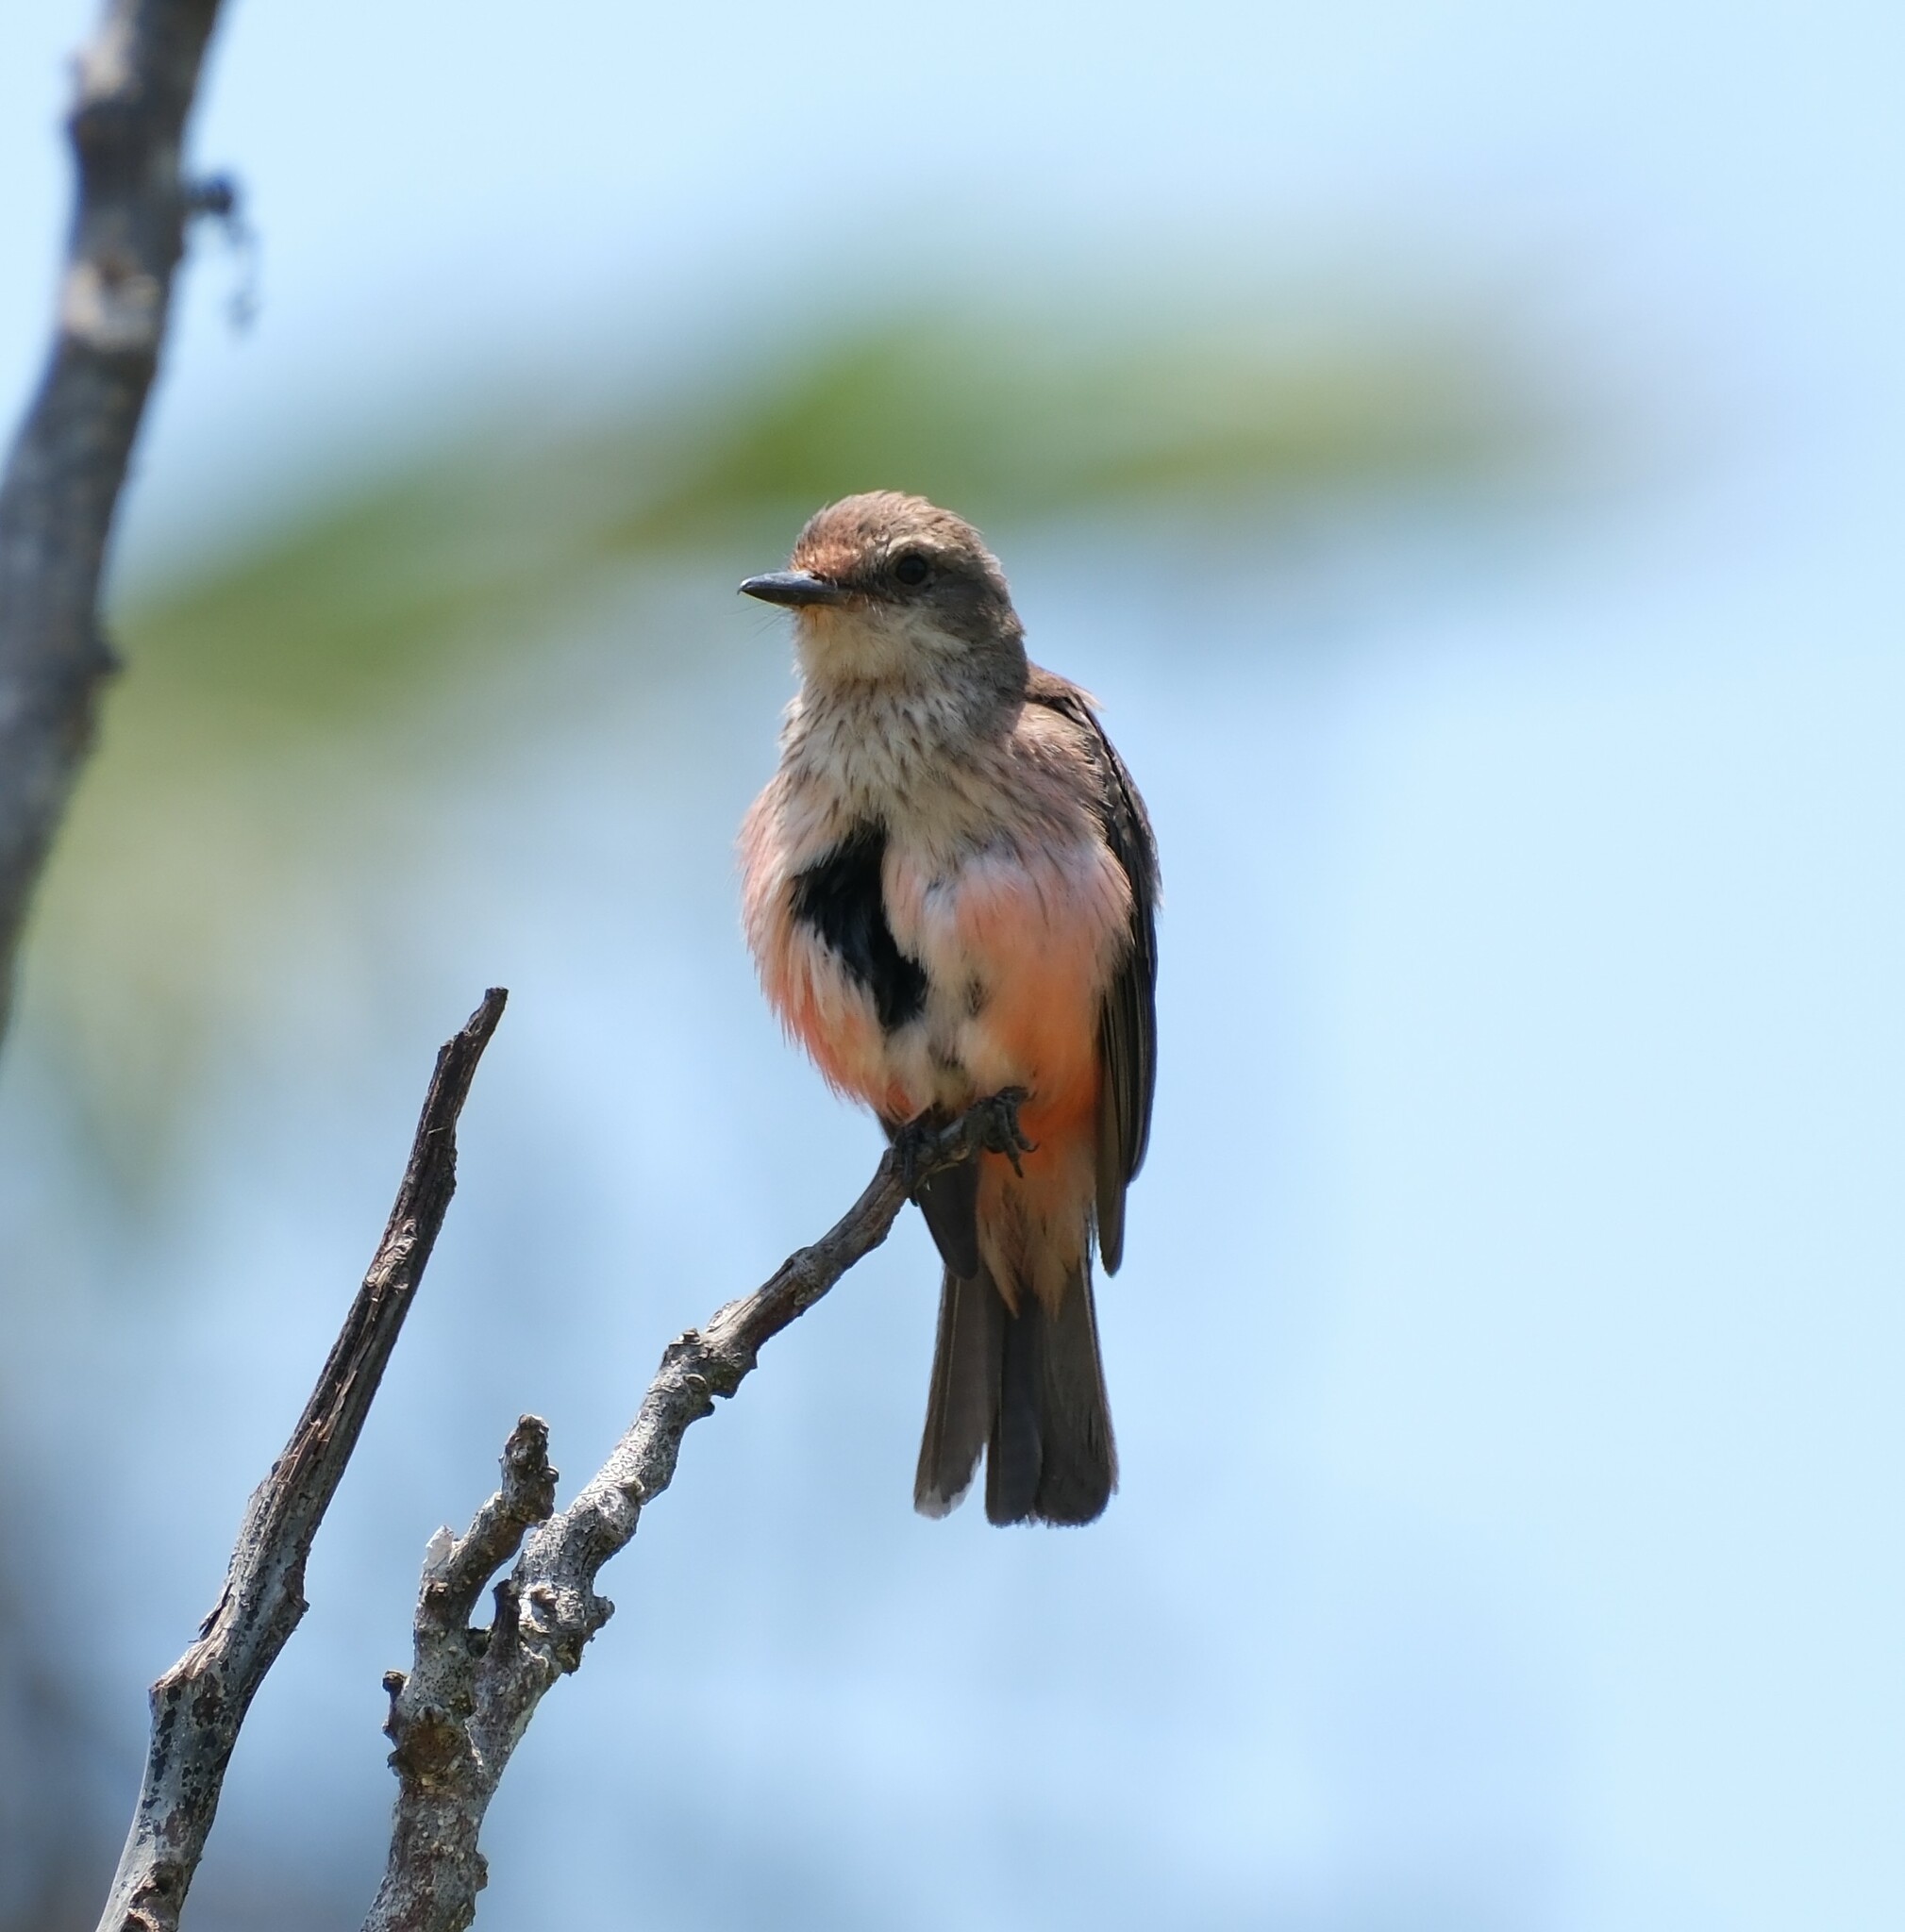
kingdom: Animalia
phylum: Chordata
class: Aves
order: Passeriformes
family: Tyrannidae
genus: Pyrocephalus
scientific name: Pyrocephalus rubinus
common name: Vermilion flycatcher
